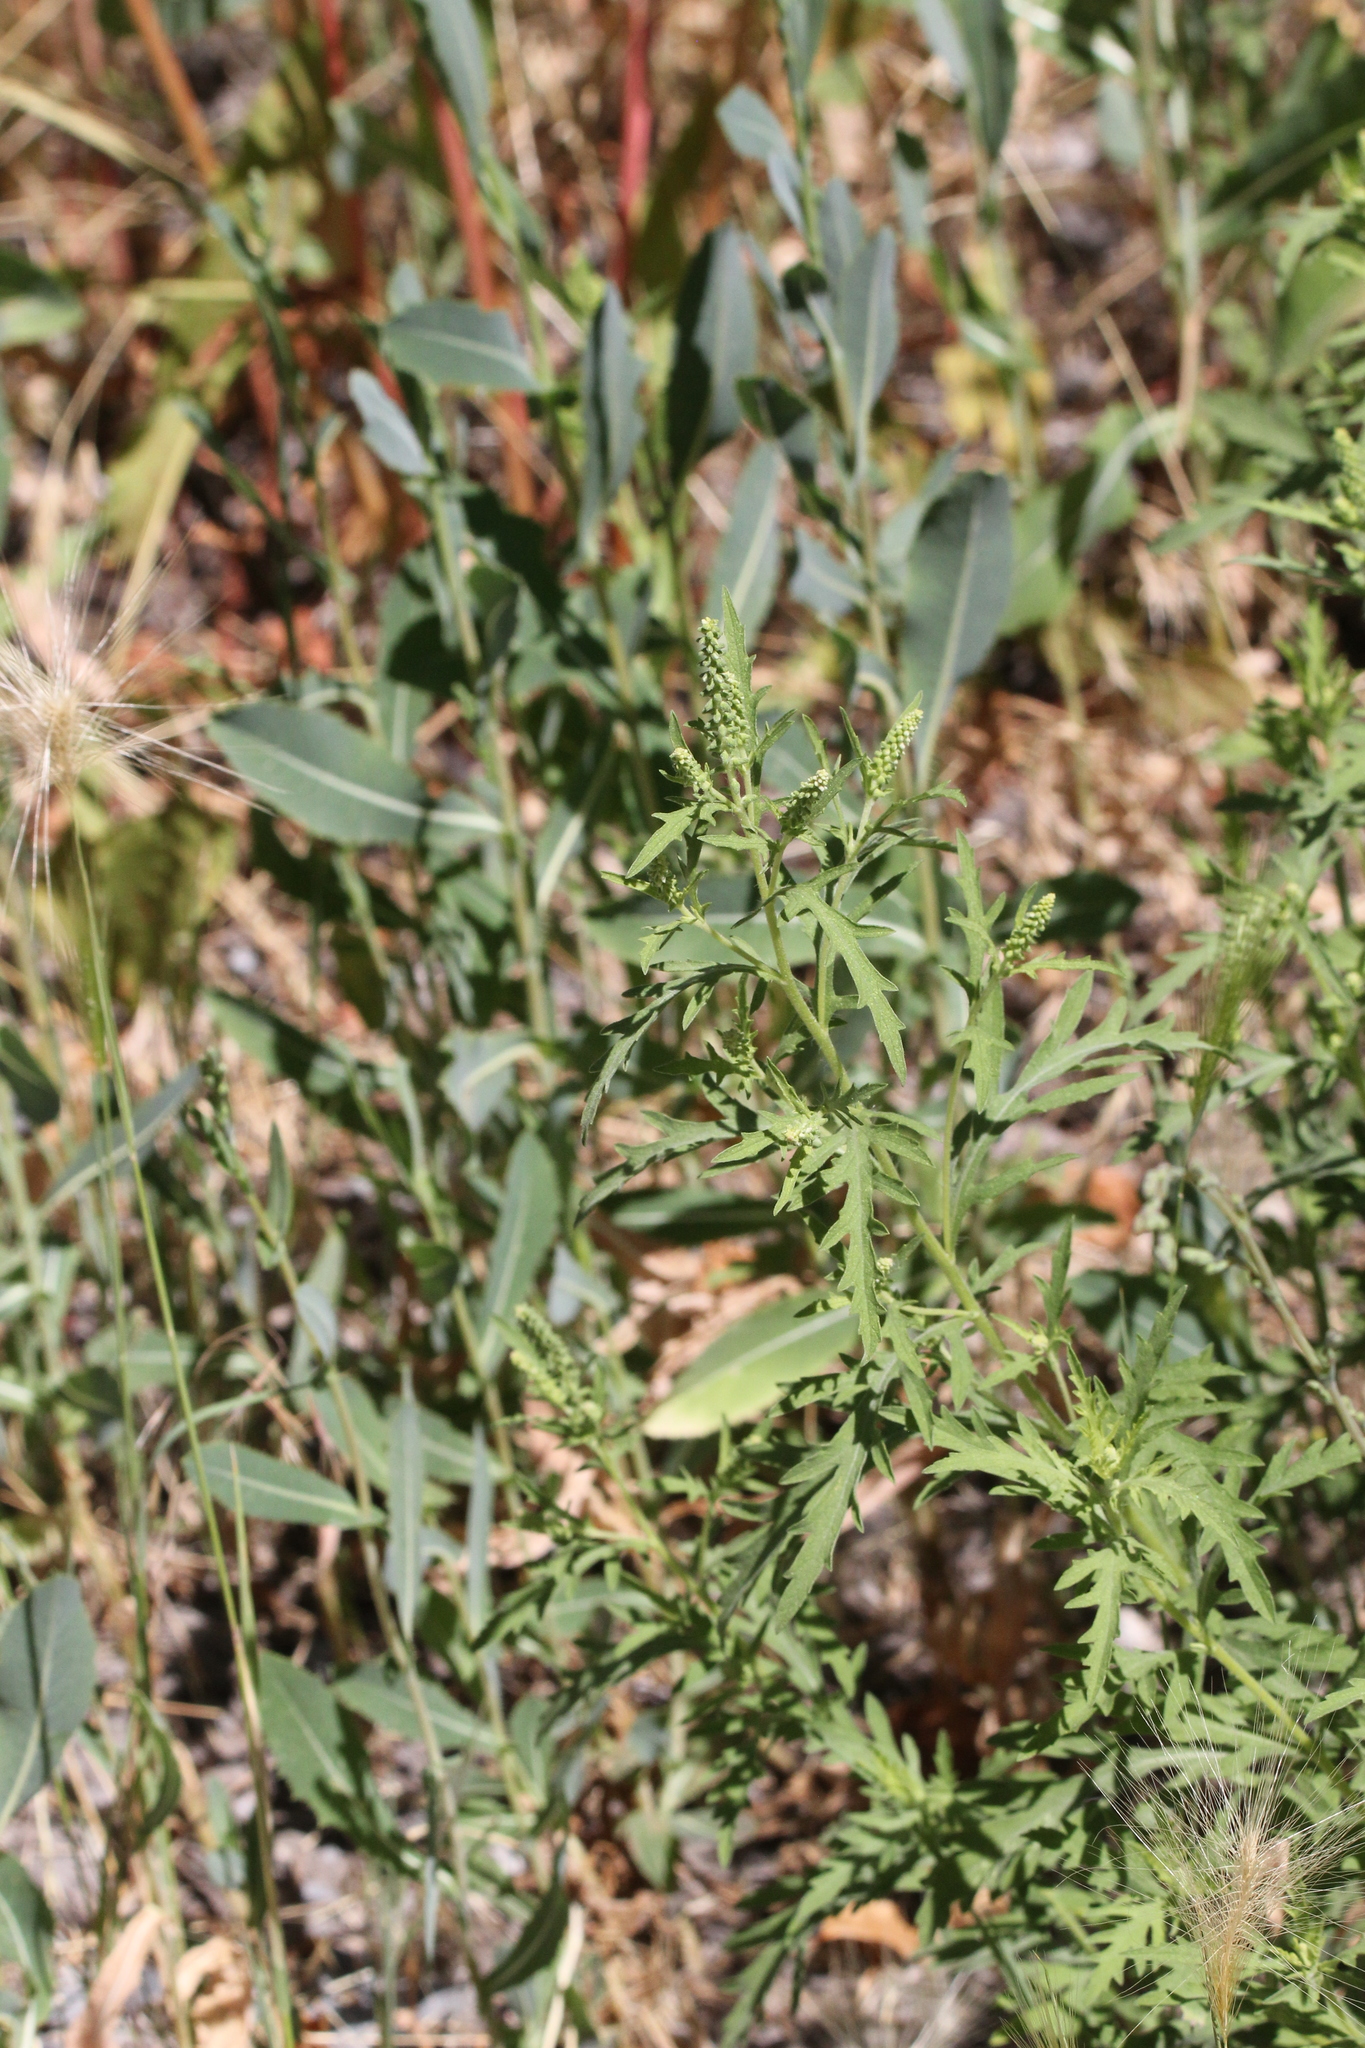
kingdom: Plantae
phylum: Tracheophyta
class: Magnoliopsida
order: Asterales
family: Asteraceae
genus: Ambrosia
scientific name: Ambrosia psilostachya
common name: Perennial ragweed
